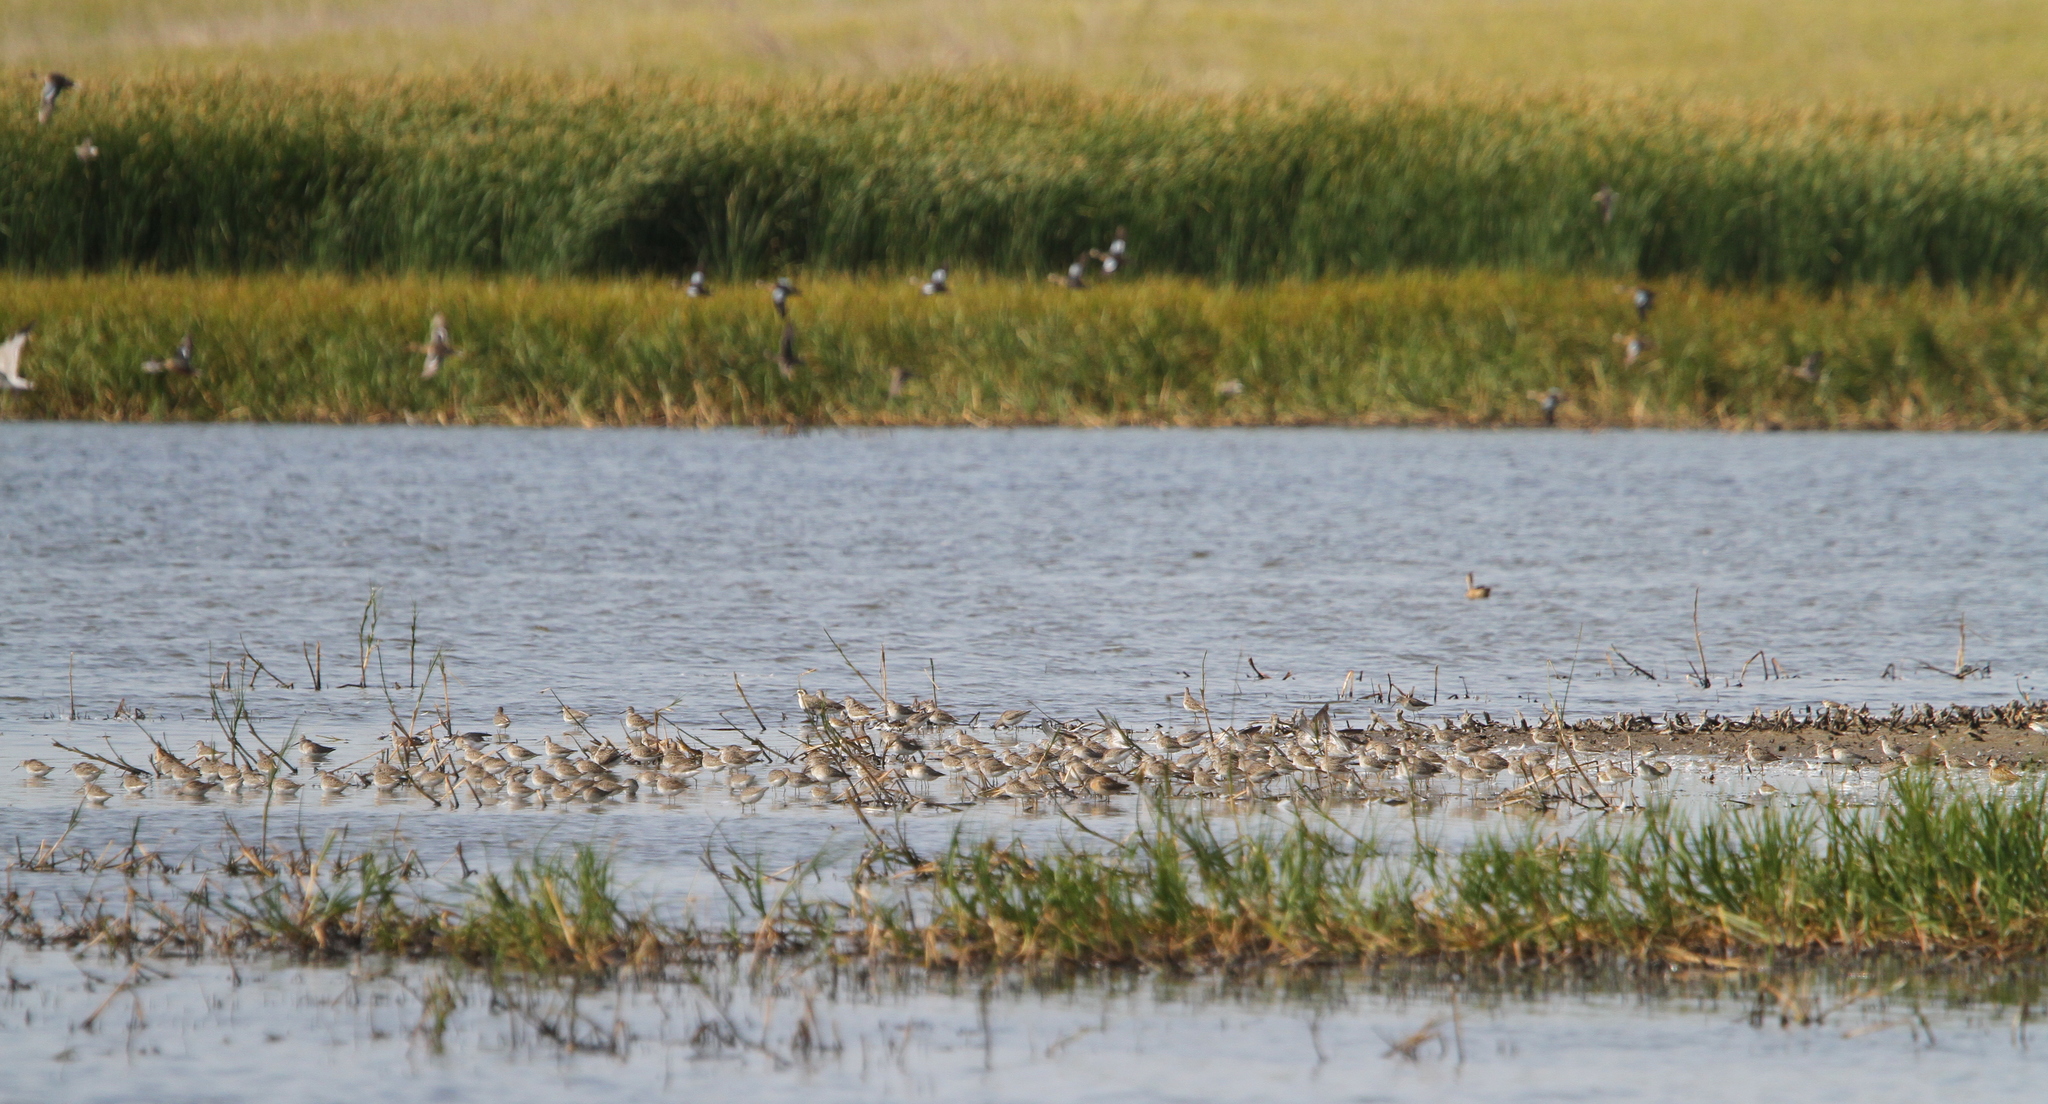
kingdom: Animalia
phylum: Chordata
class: Aves
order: Charadriiformes
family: Charadriidae
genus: Pluvialis
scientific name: Pluvialis dominica
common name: American golden plover
